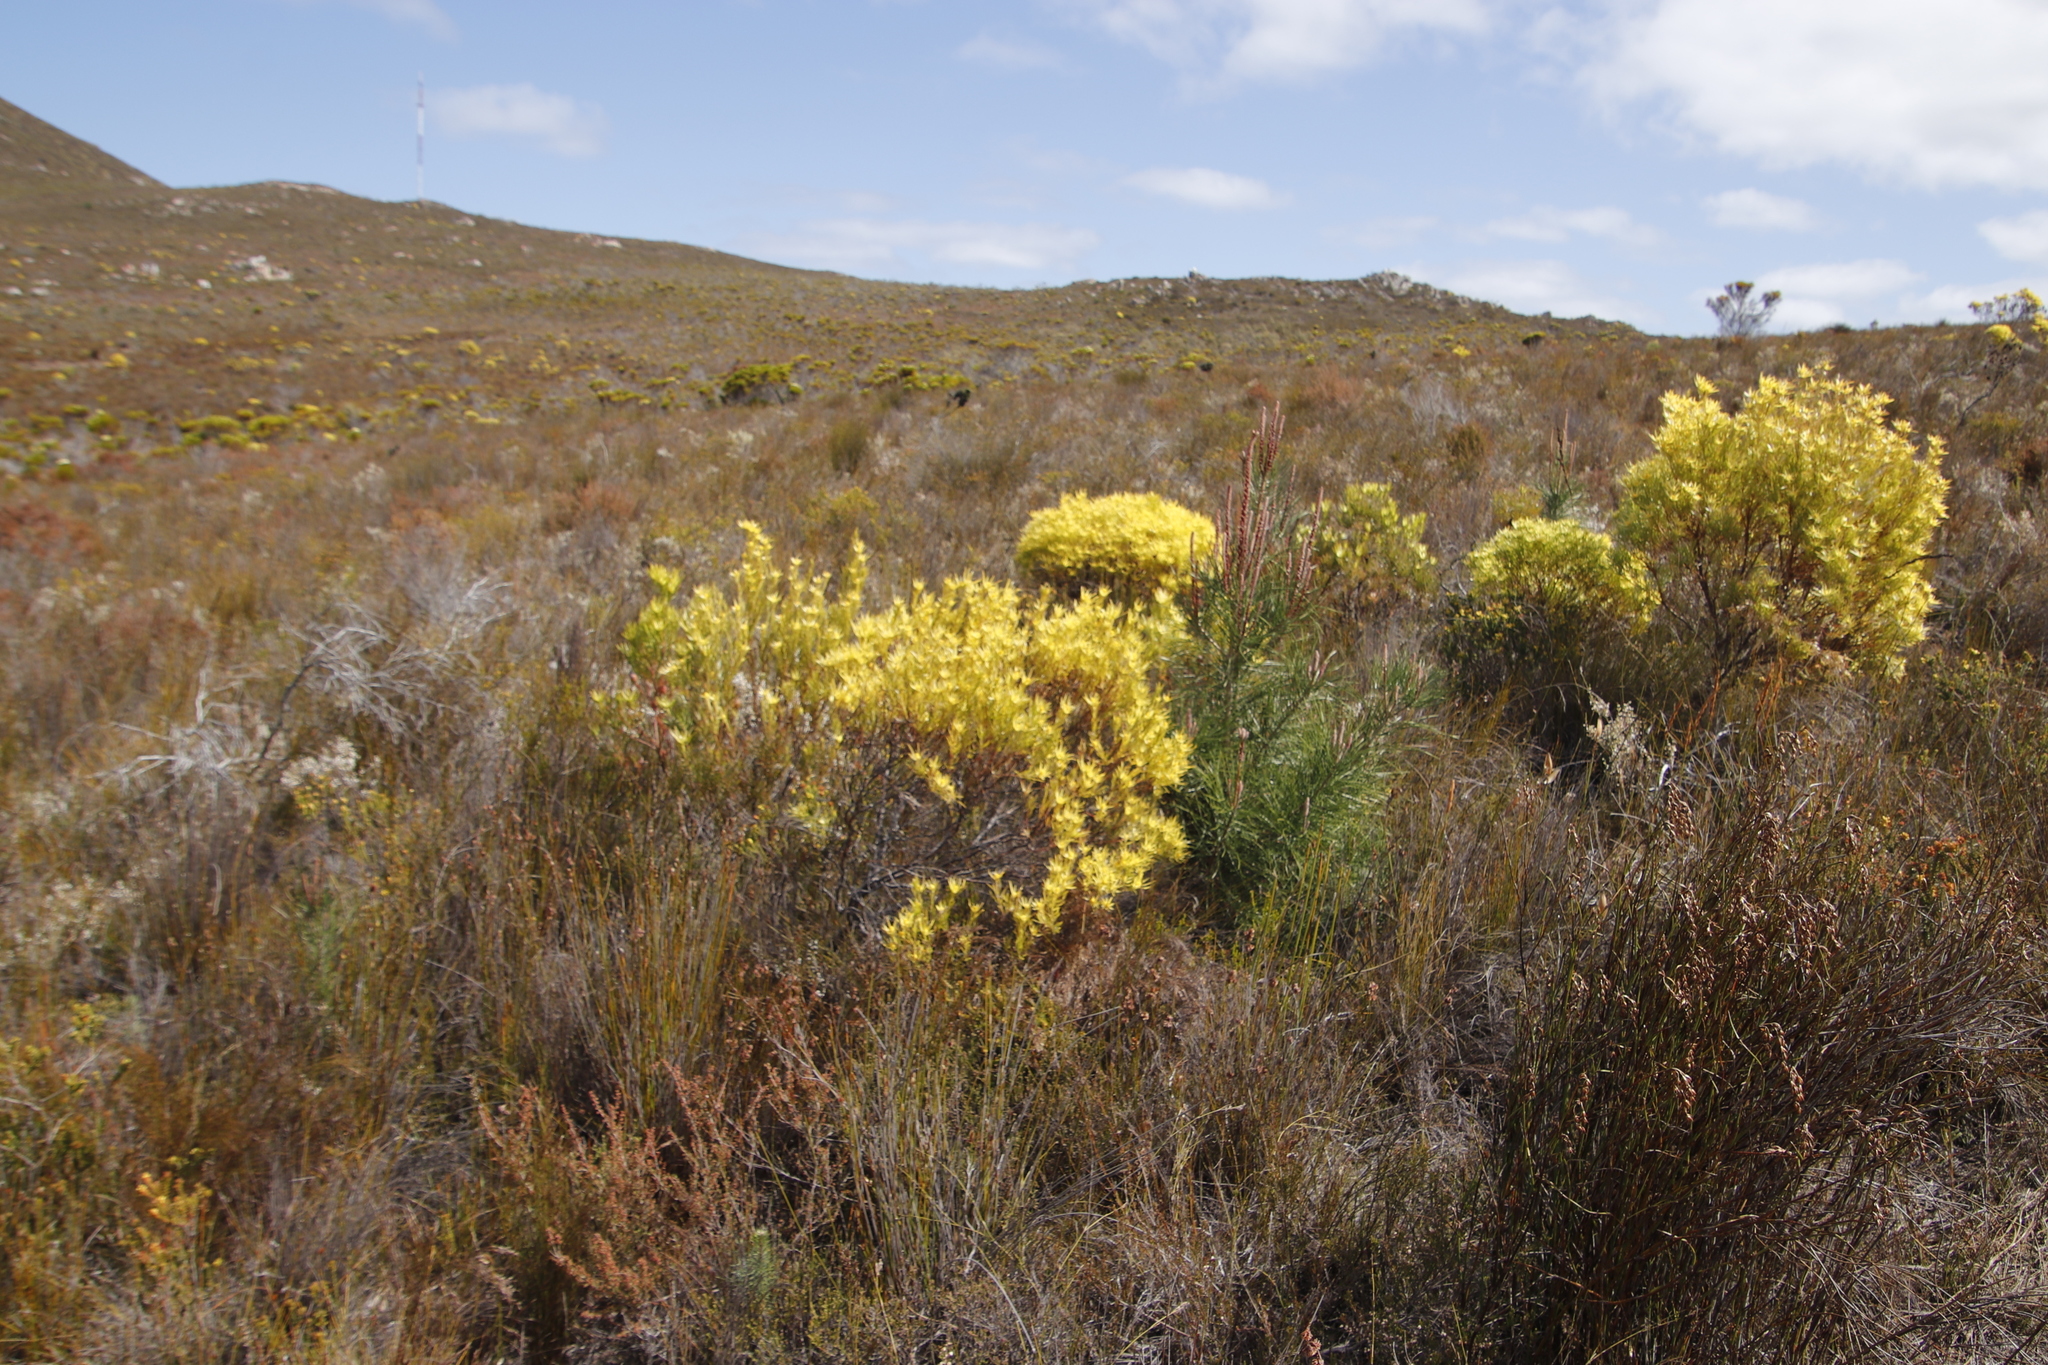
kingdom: Plantae
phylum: Tracheophyta
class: Magnoliopsida
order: Proteales
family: Proteaceae
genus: Leucadendron
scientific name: Leucadendron xanthoconus
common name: Sickle-leaf conebush
